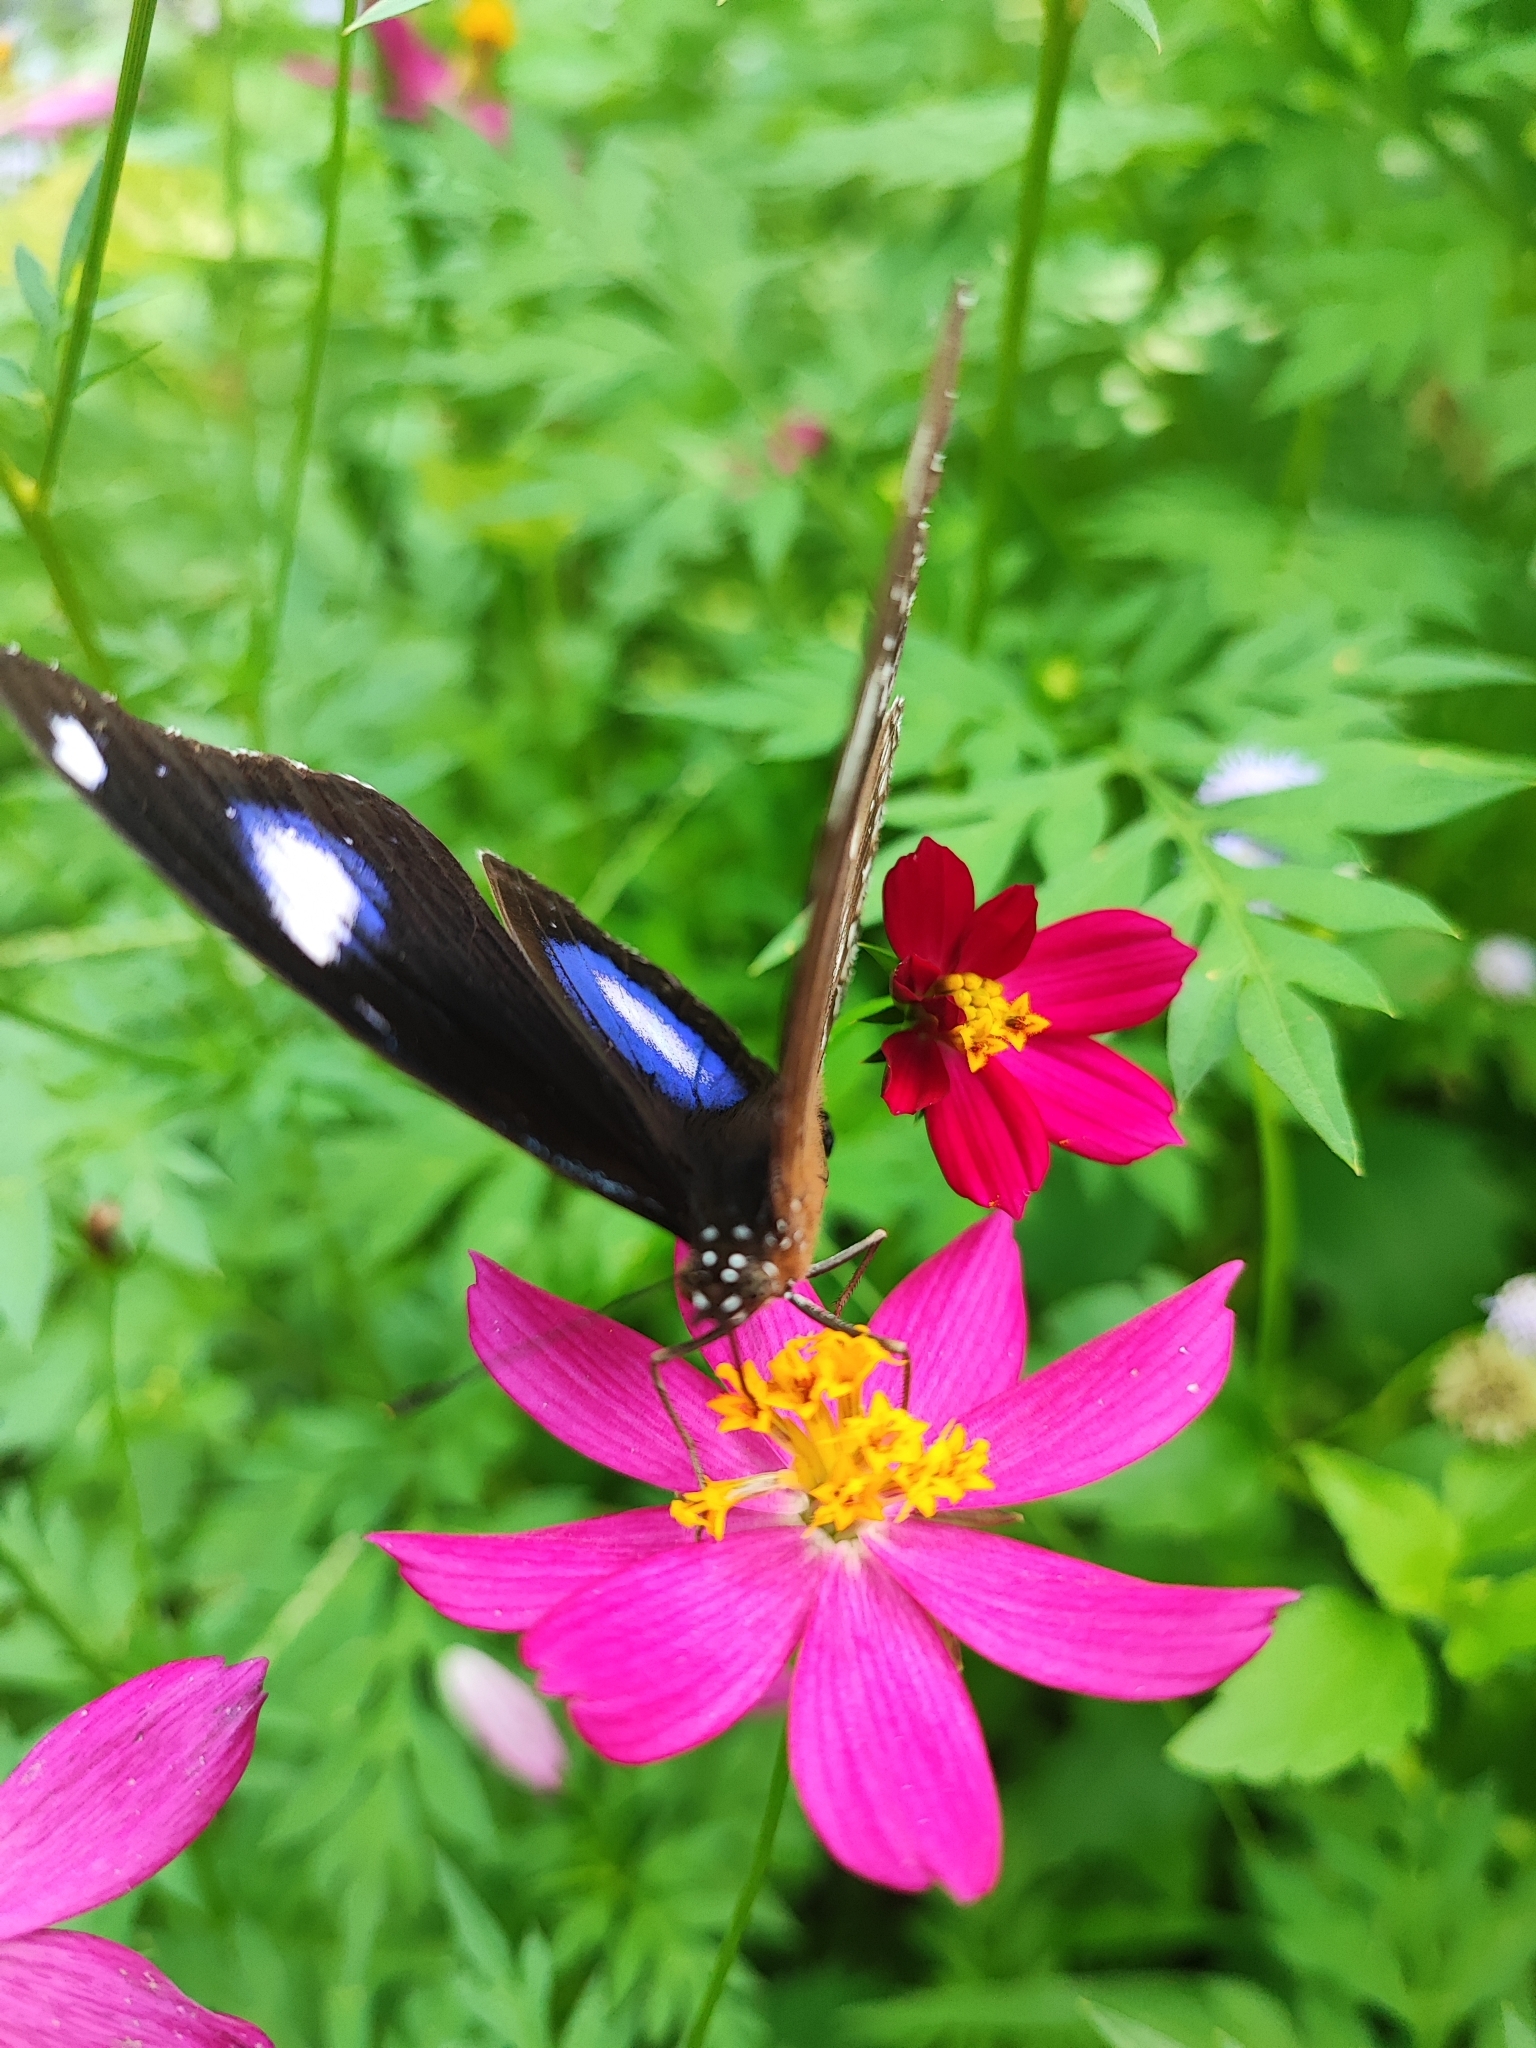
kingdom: Animalia
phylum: Arthropoda
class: Insecta
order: Lepidoptera
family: Nymphalidae
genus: Hypolimnas
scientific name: Hypolimnas bolina
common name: Great eggfly
